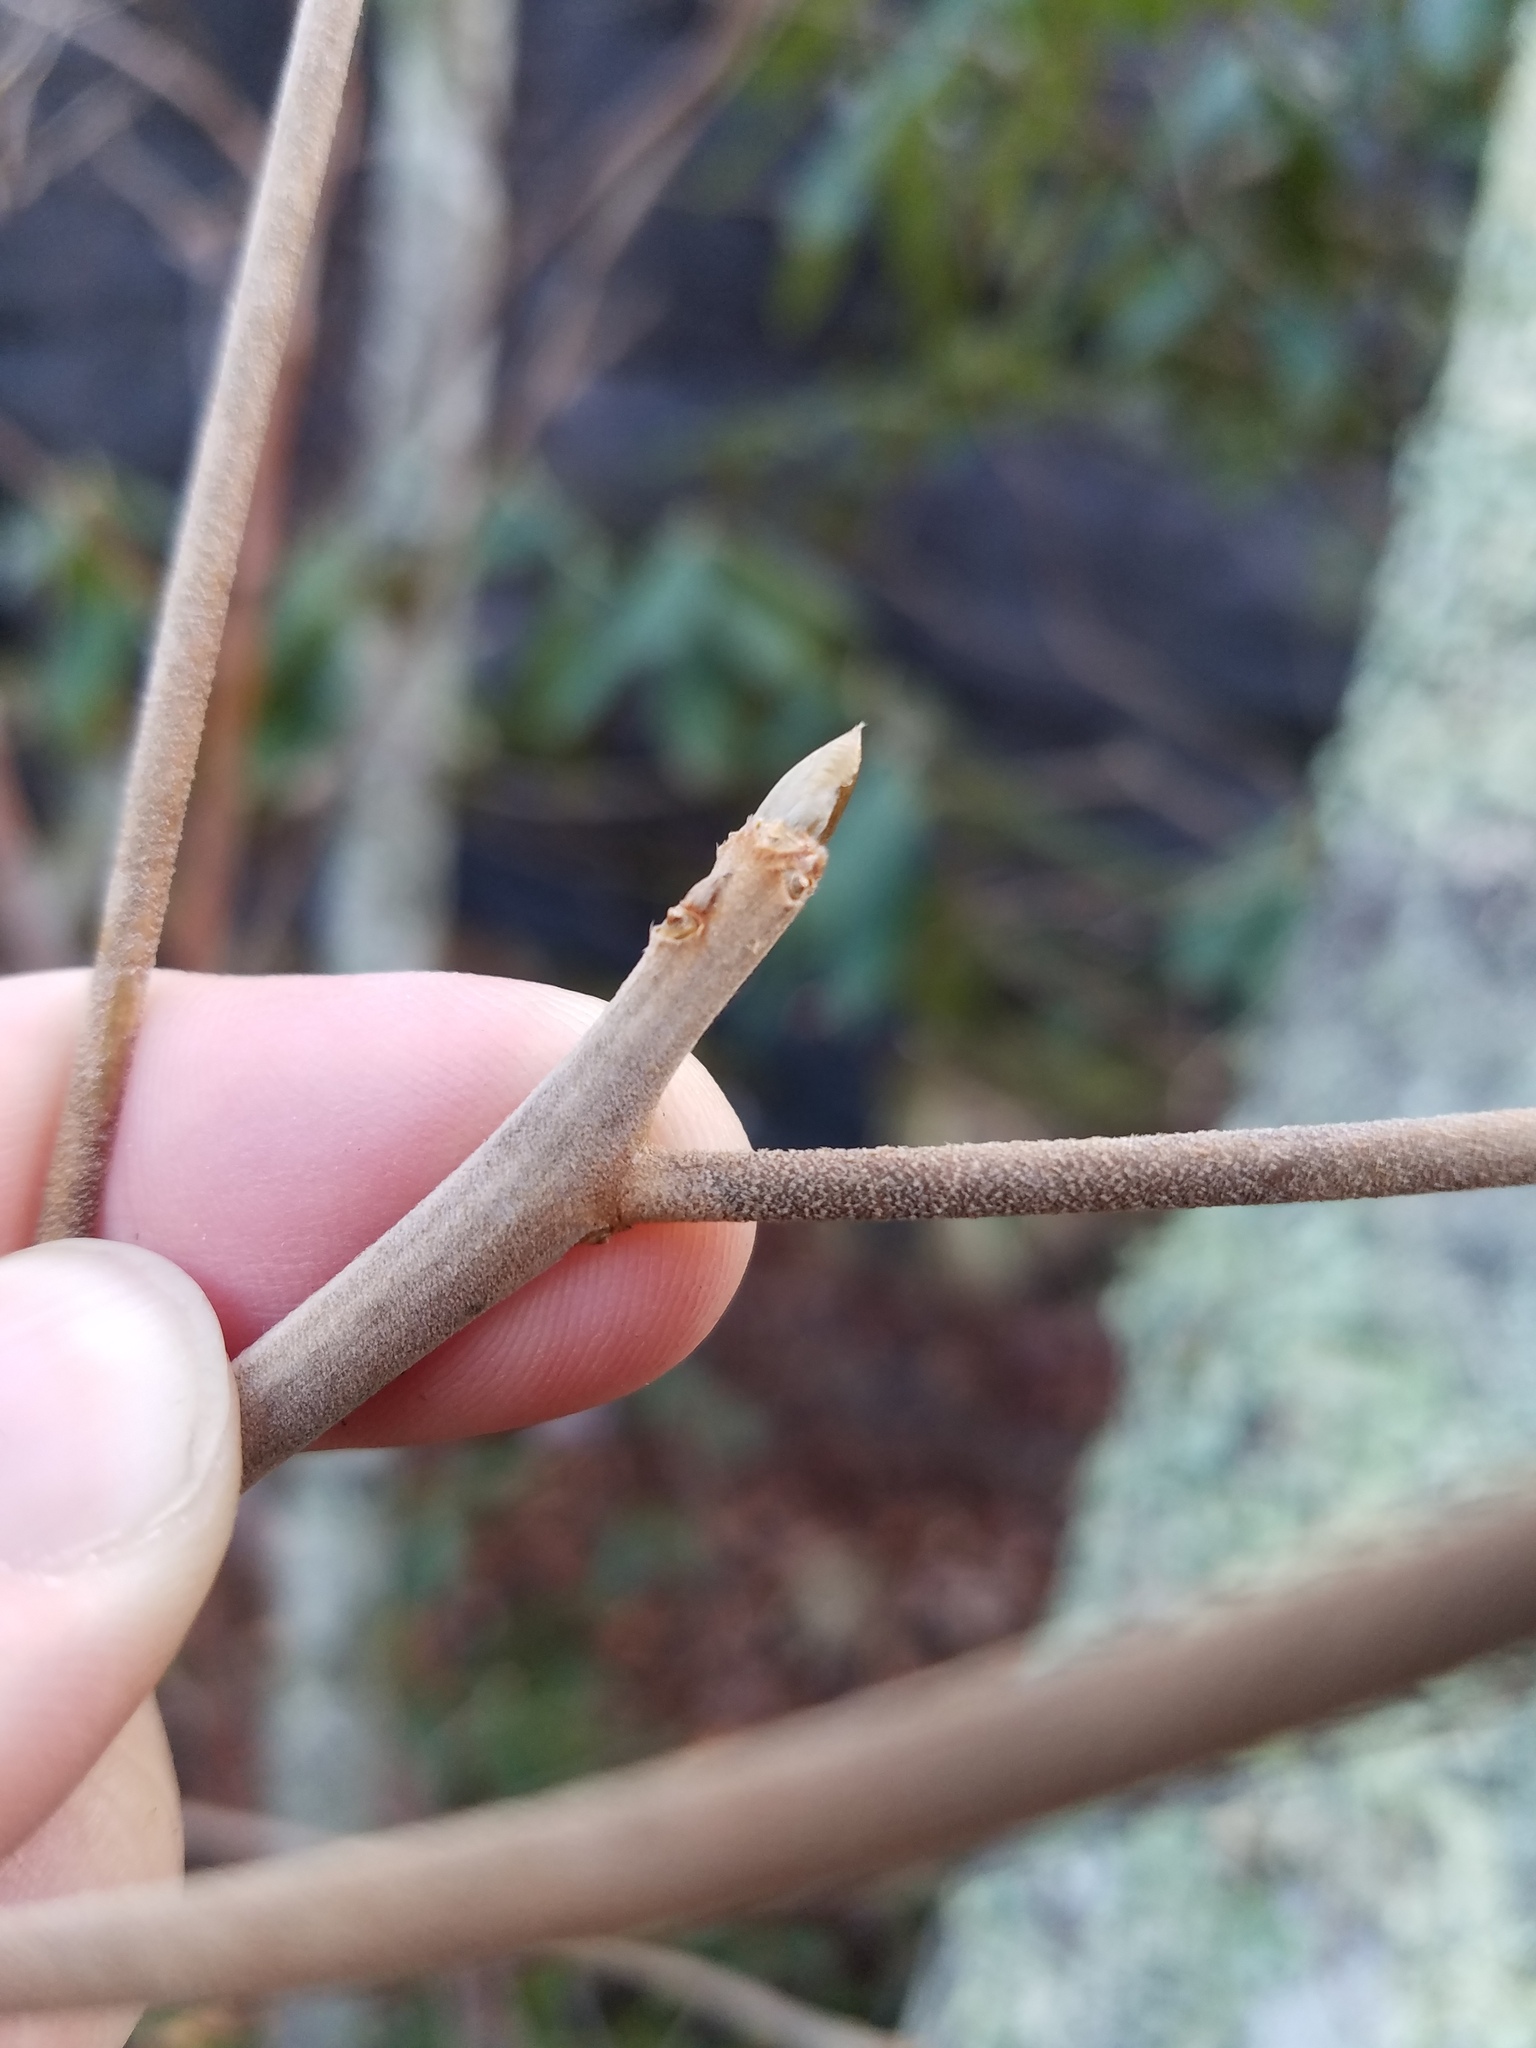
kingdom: Plantae
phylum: Tracheophyta
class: Magnoliopsida
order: Ericales
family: Clethraceae
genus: Clethra
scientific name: Clethra acuminata
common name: Mountain sweet pepperbush
